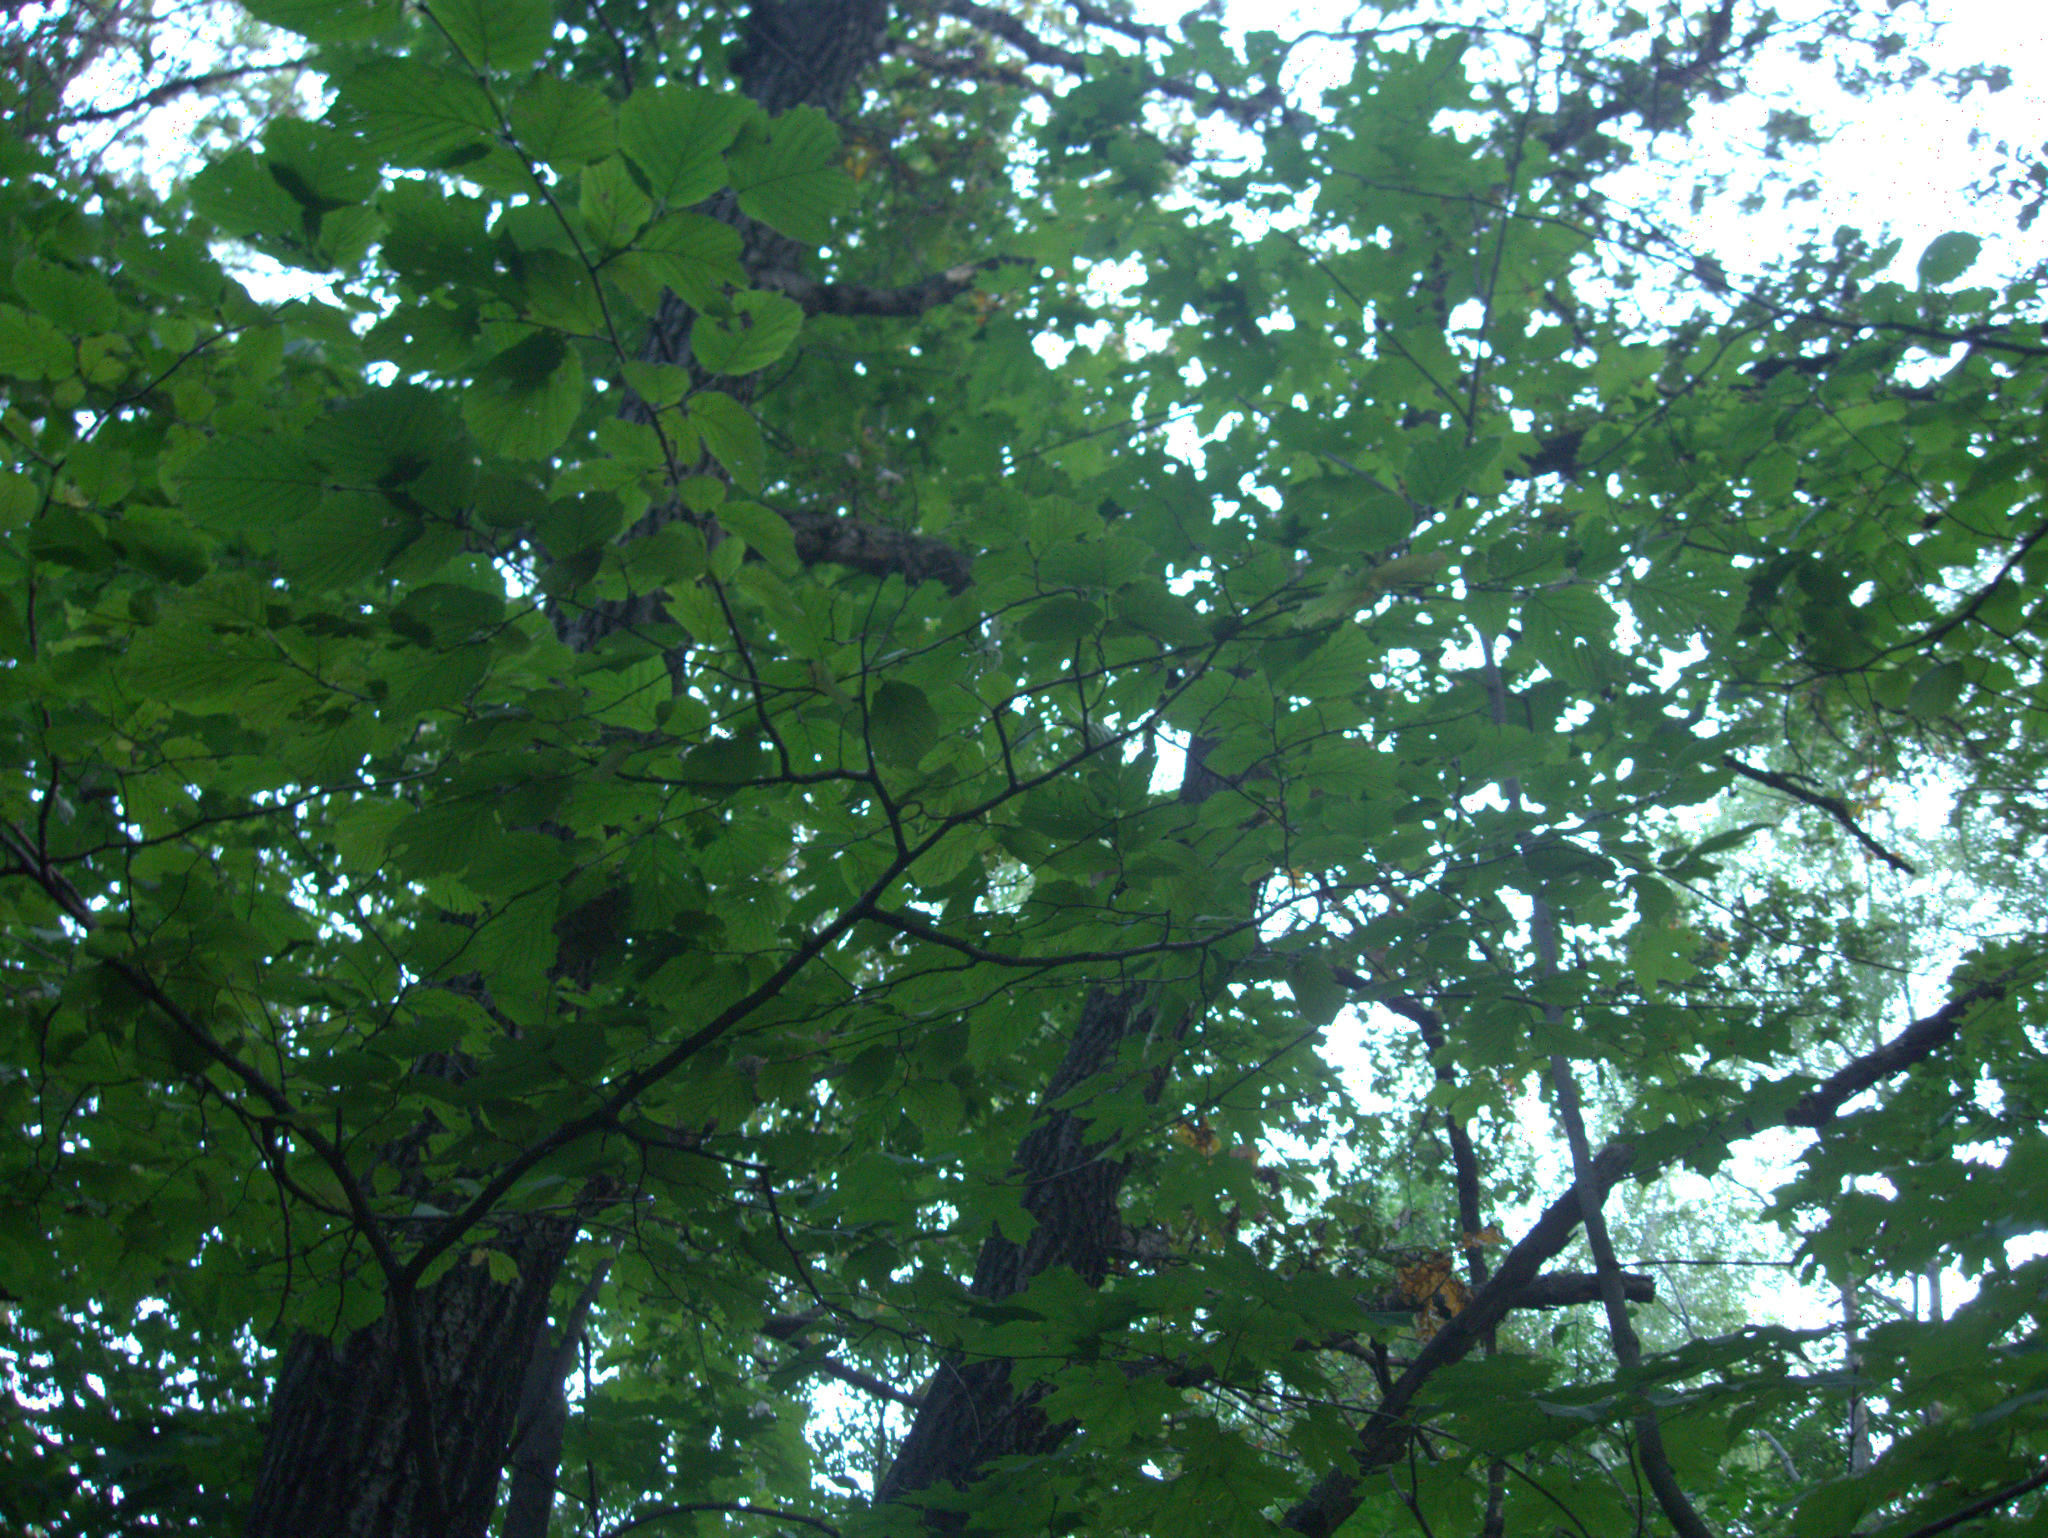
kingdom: Plantae
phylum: Tracheophyta
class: Magnoliopsida
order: Fagales
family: Betulaceae
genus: Corylus
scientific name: Corylus avellana
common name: European hazel
